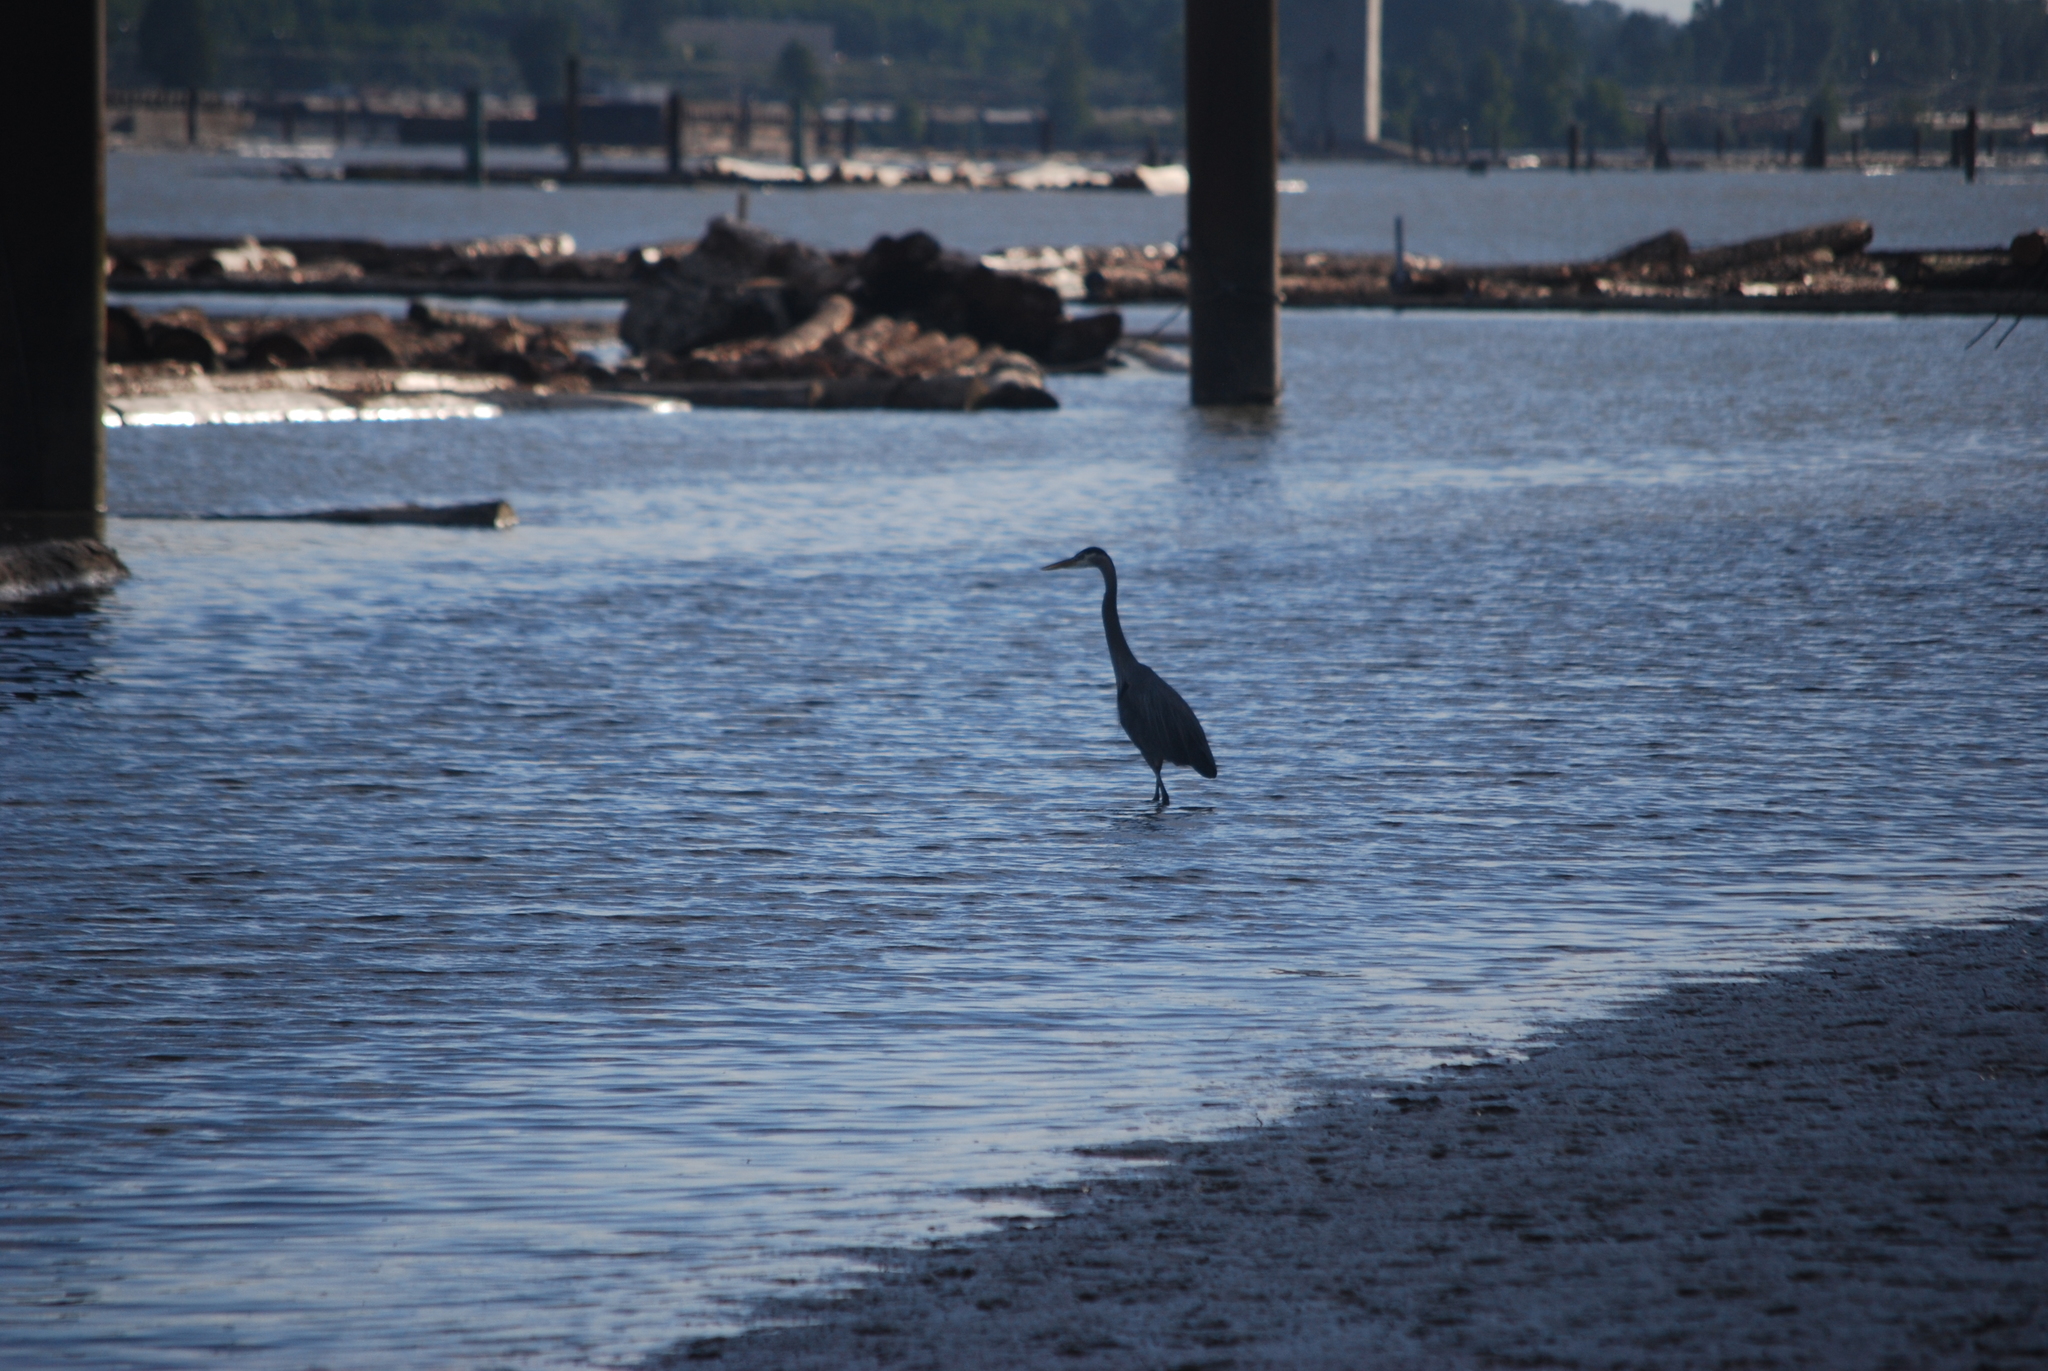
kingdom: Animalia
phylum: Chordata
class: Aves
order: Pelecaniformes
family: Ardeidae
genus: Ardea
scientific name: Ardea herodias
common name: Great blue heron
